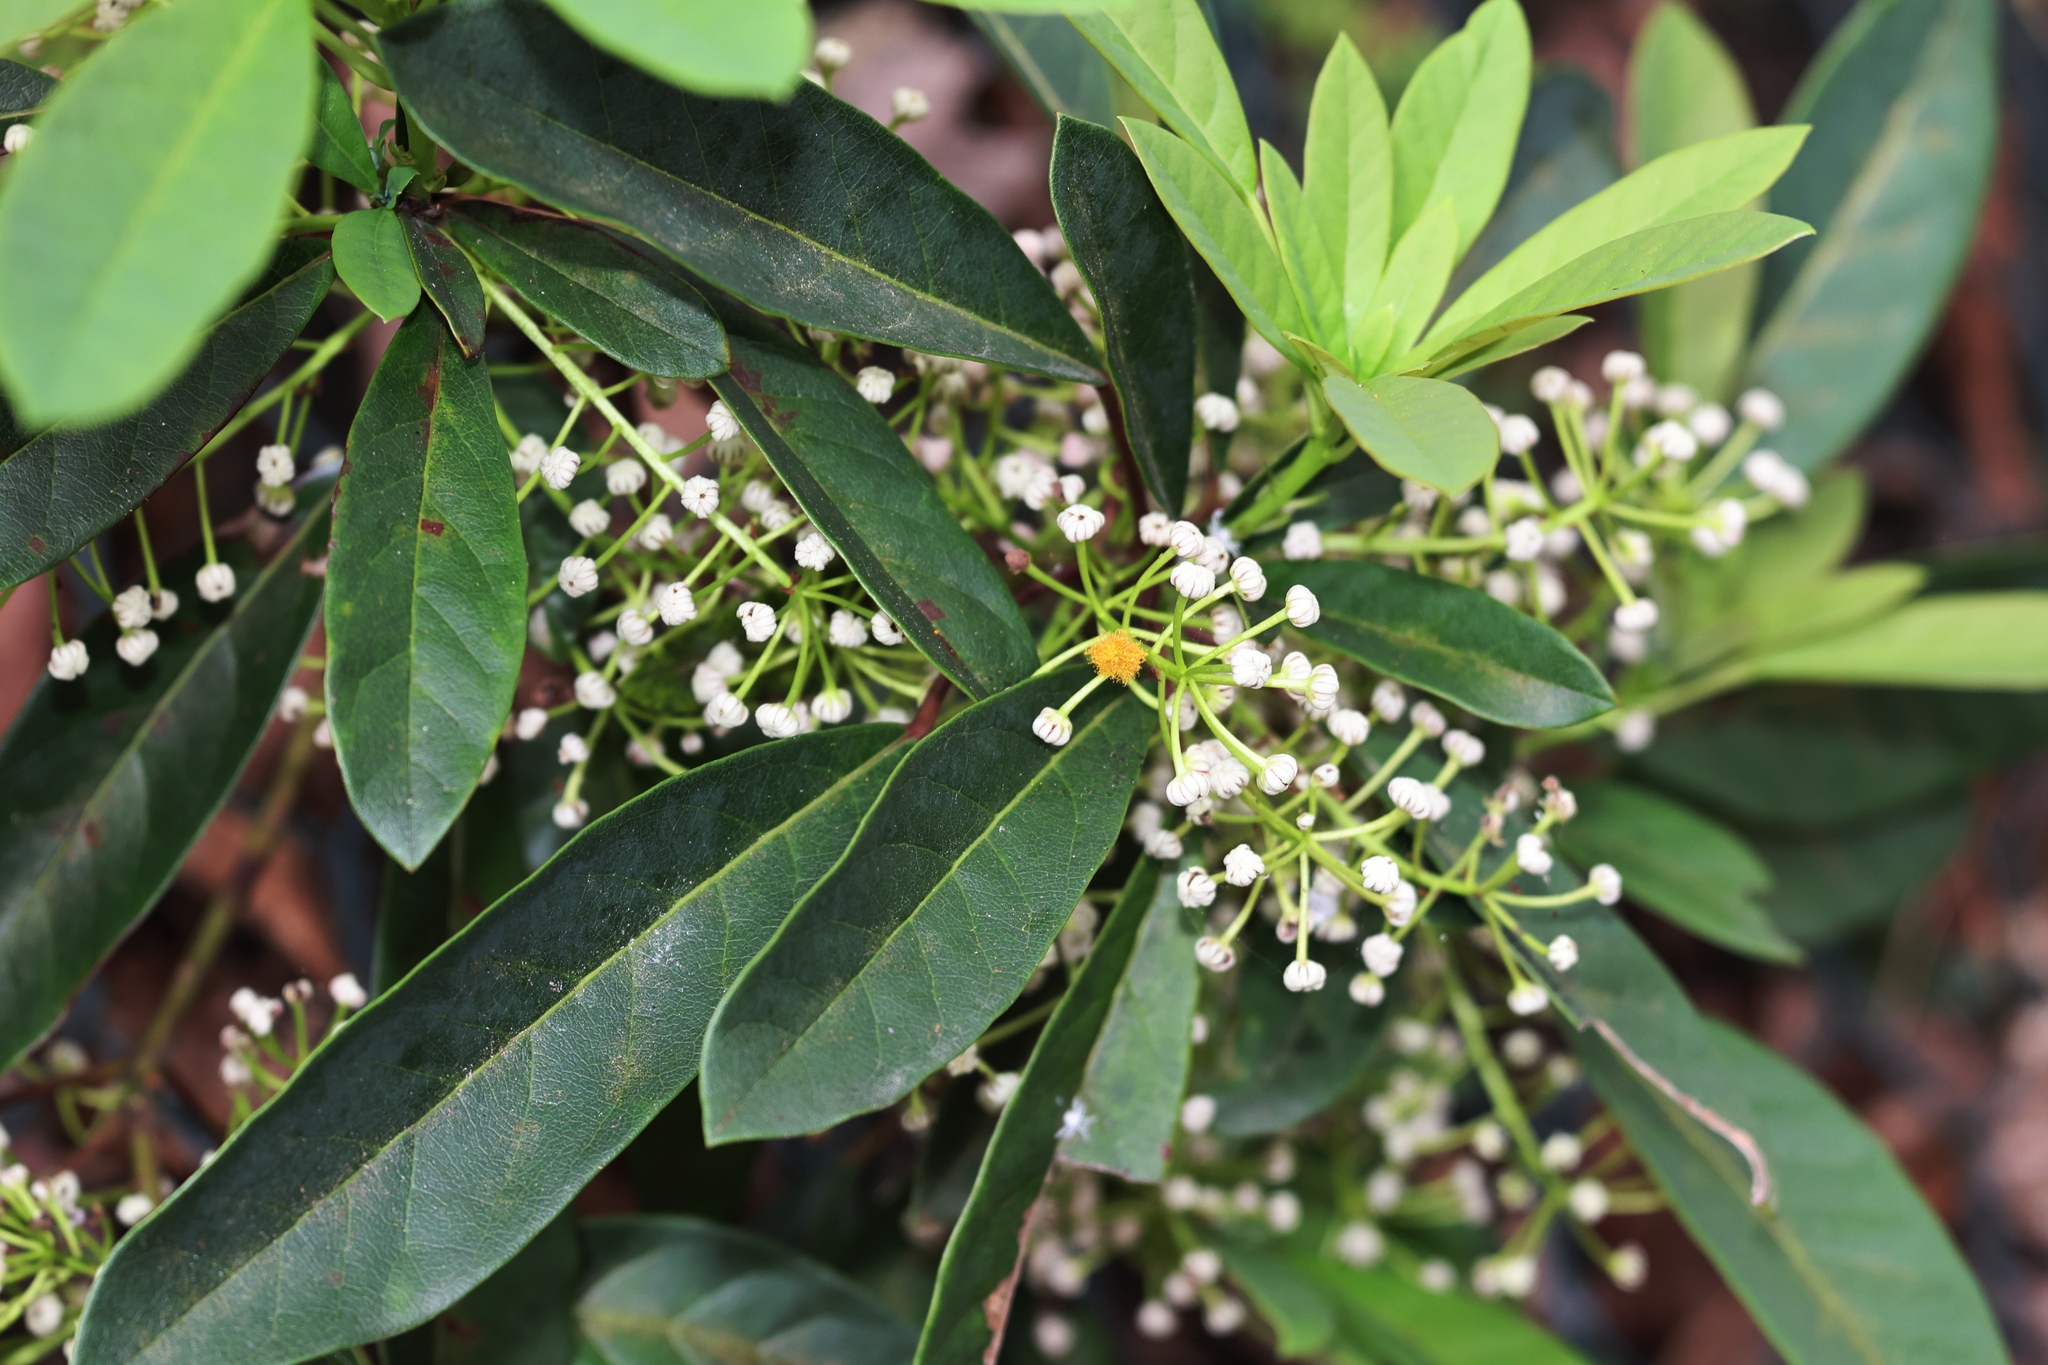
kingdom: Plantae
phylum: Tracheophyta
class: Magnoliopsida
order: Saxifragales
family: Daphniphyllaceae
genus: Daphniphyllum
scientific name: Daphniphyllum calycinum
